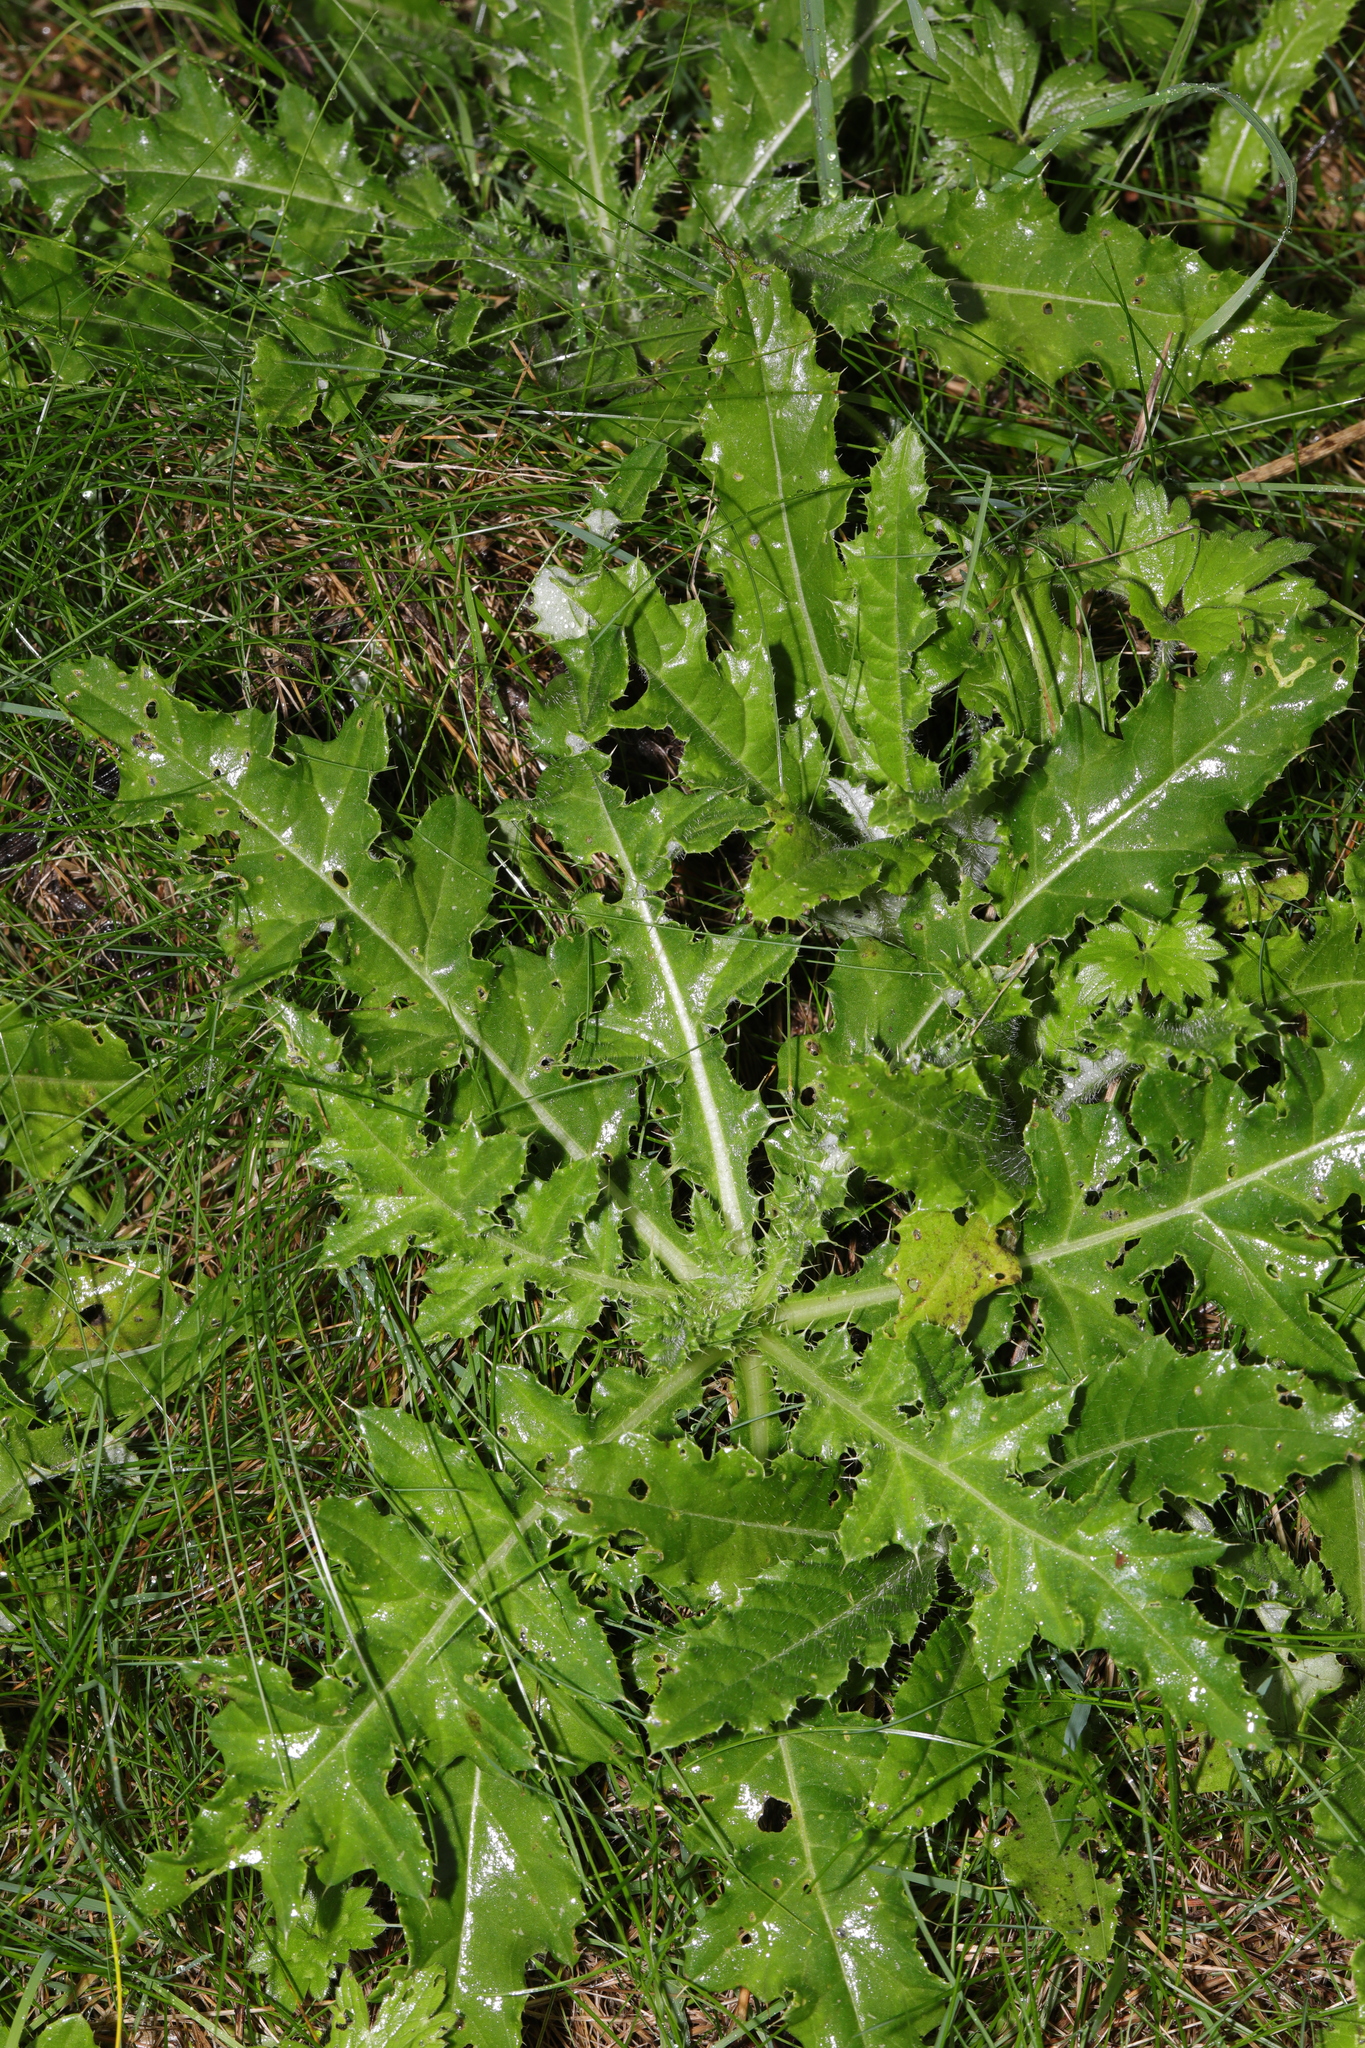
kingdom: Plantae
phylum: Tracheophyta
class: Magnoliopsida
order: Asterales
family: Asteraceae
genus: Cirsium
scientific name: Cirsium arvense
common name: Creeping thistle
